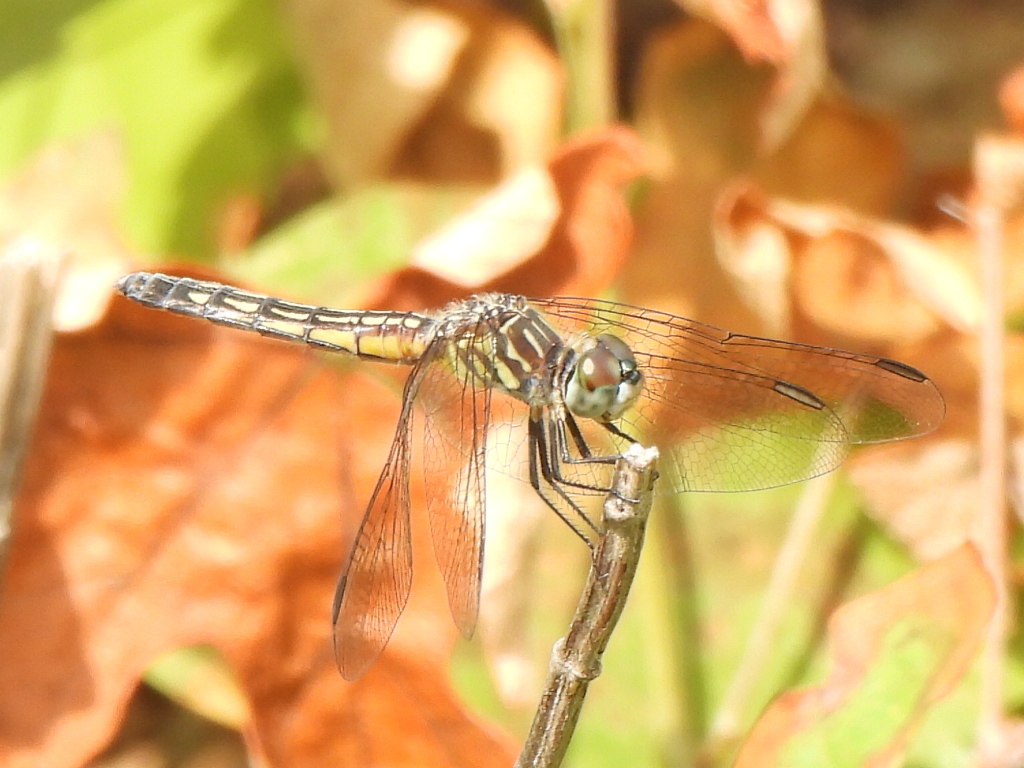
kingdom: Animalia
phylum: Arthropoda
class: Insecta
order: Odonata
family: Libellulidae
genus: Pachydiplax
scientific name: Pachydiplax longipennis
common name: Blue dasher
